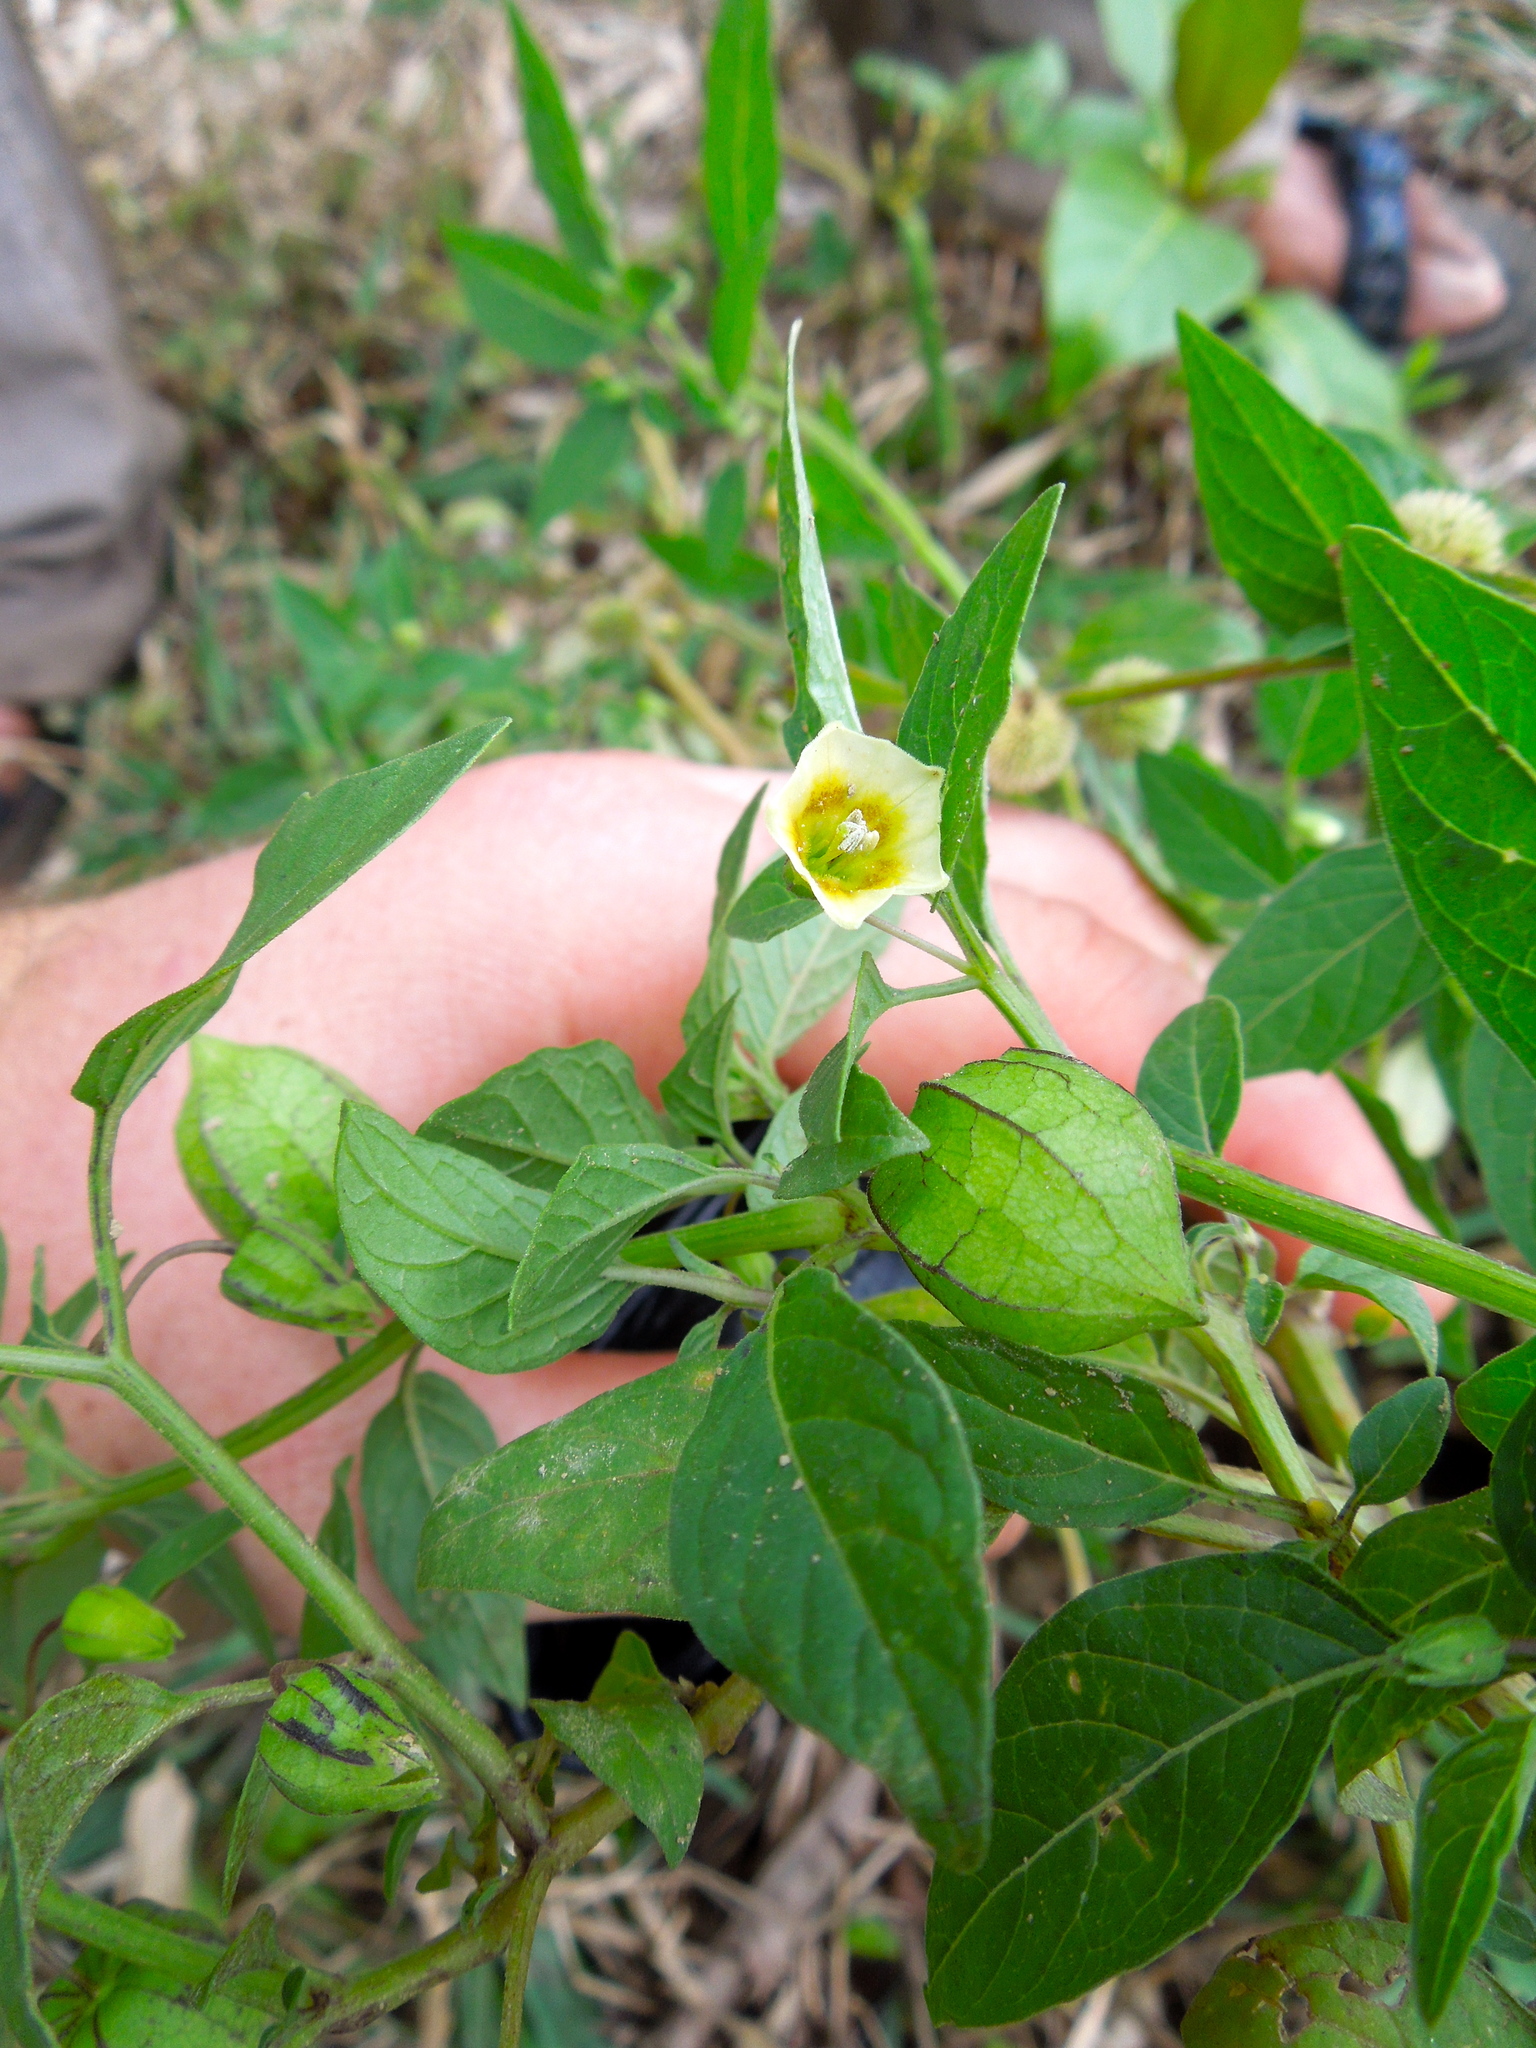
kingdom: Plantae
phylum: Tracheophyta
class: Magnoliopsida
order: Solanales
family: Solanaceae
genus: Physalis
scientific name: Physalis angulata
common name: Angular winter-cherry
